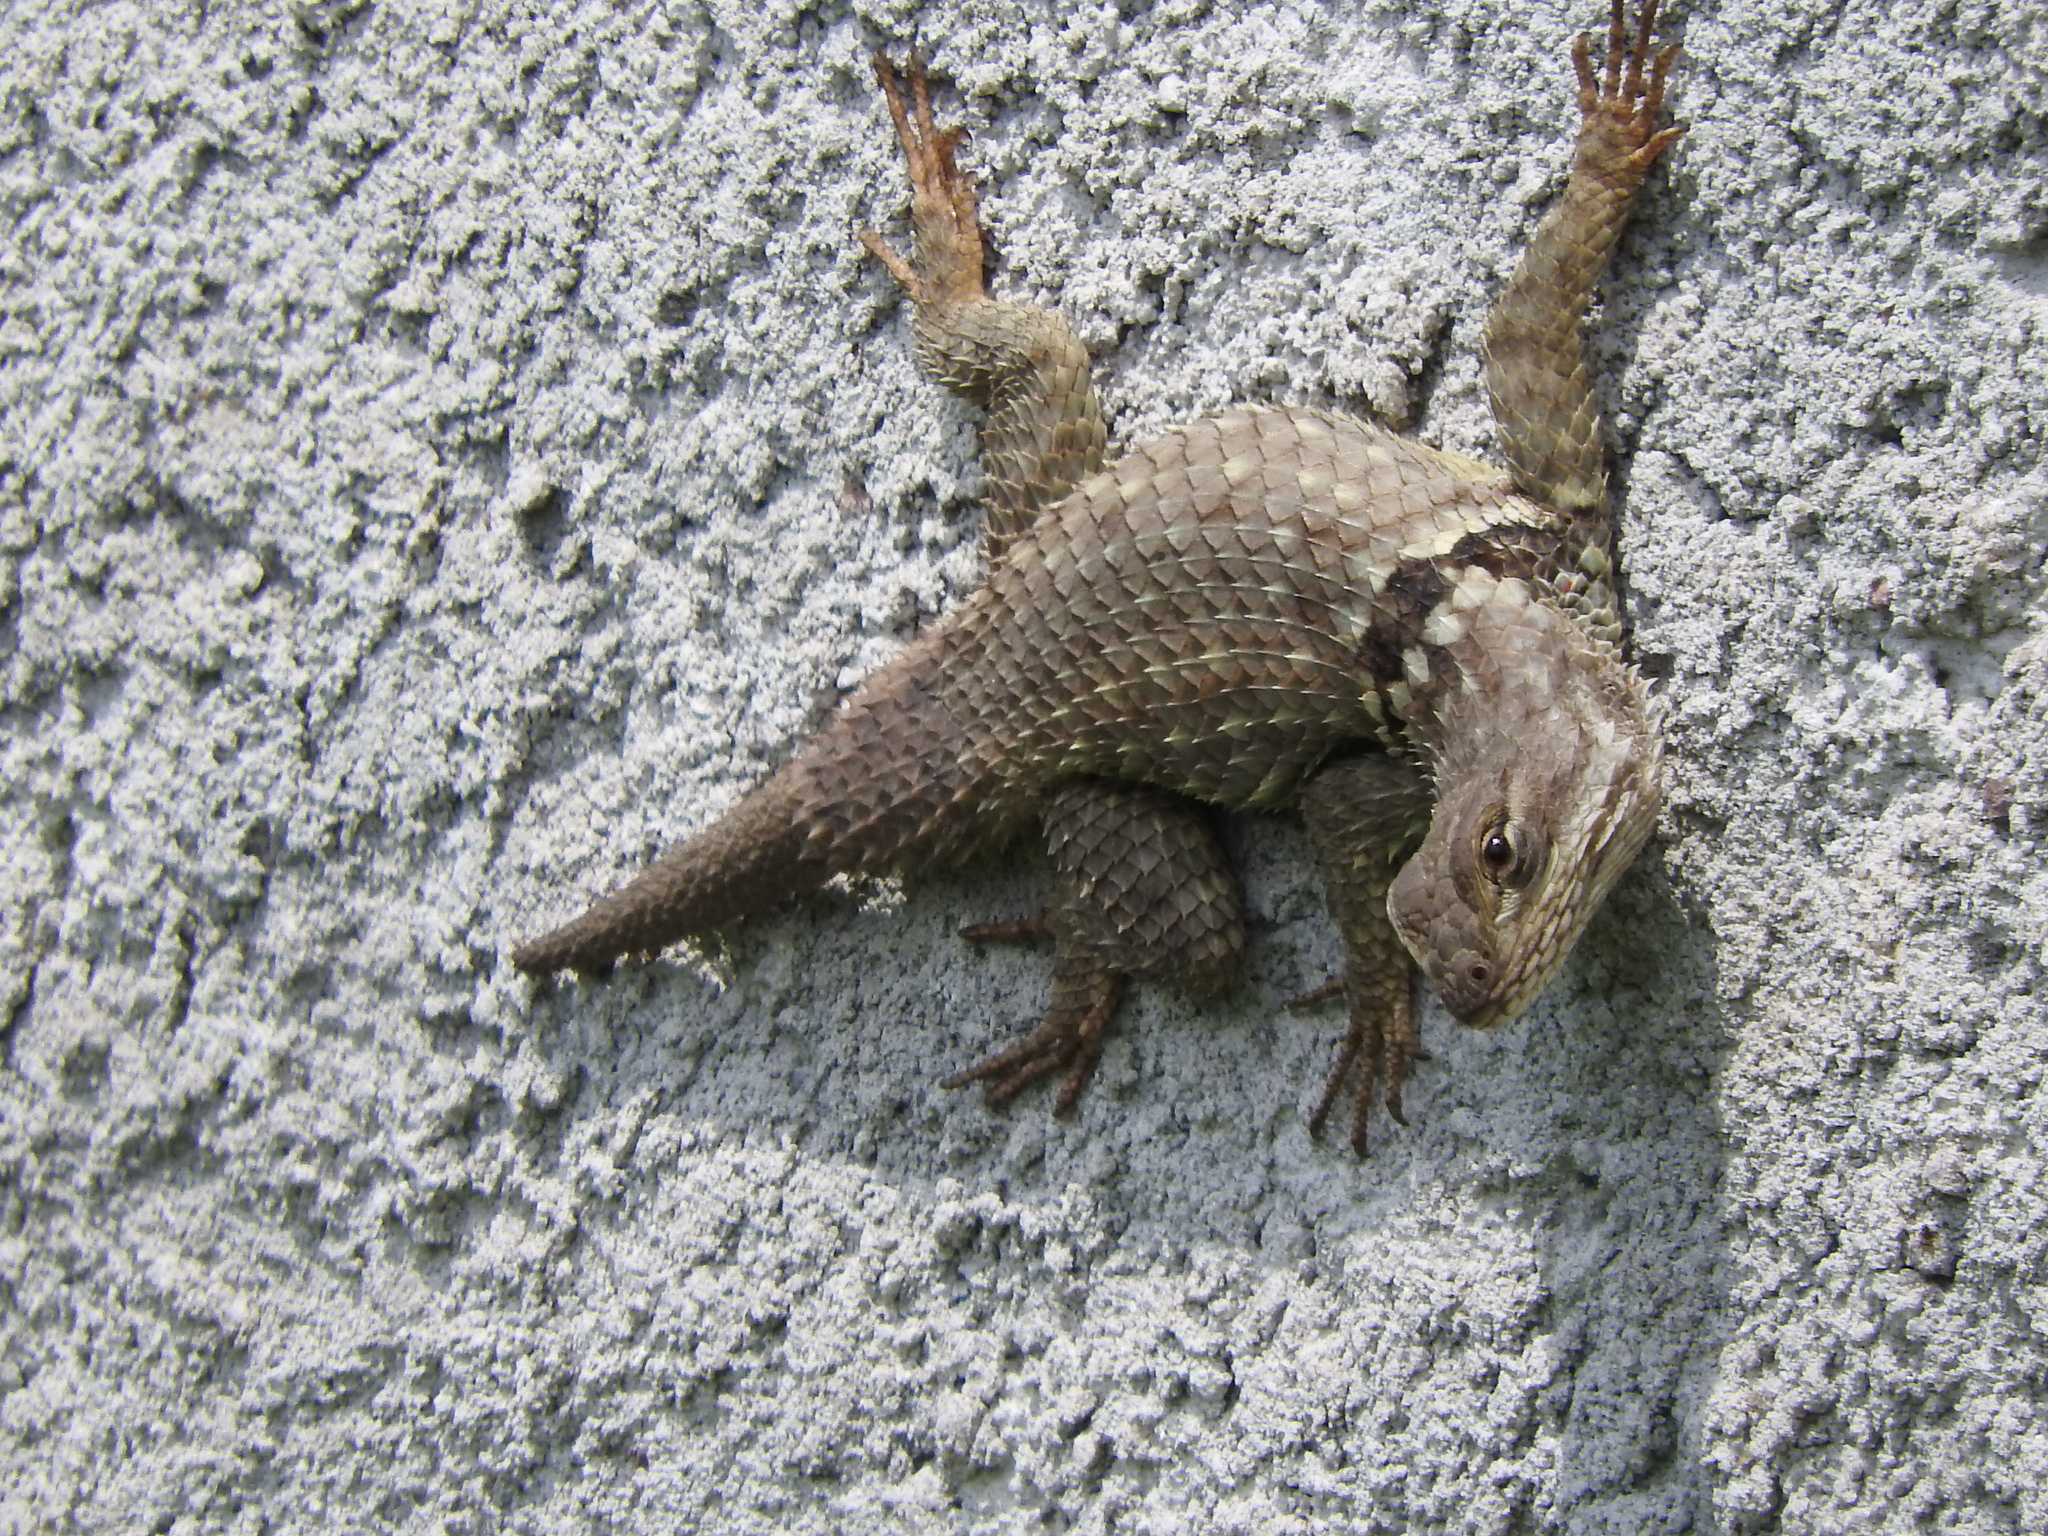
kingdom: Animalia
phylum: Chordata
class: Squamata
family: Phrynosomatidae
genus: Sceloporus
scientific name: Sceloporus torquatus
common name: Central plateau torquate lizard [melanogaster]
